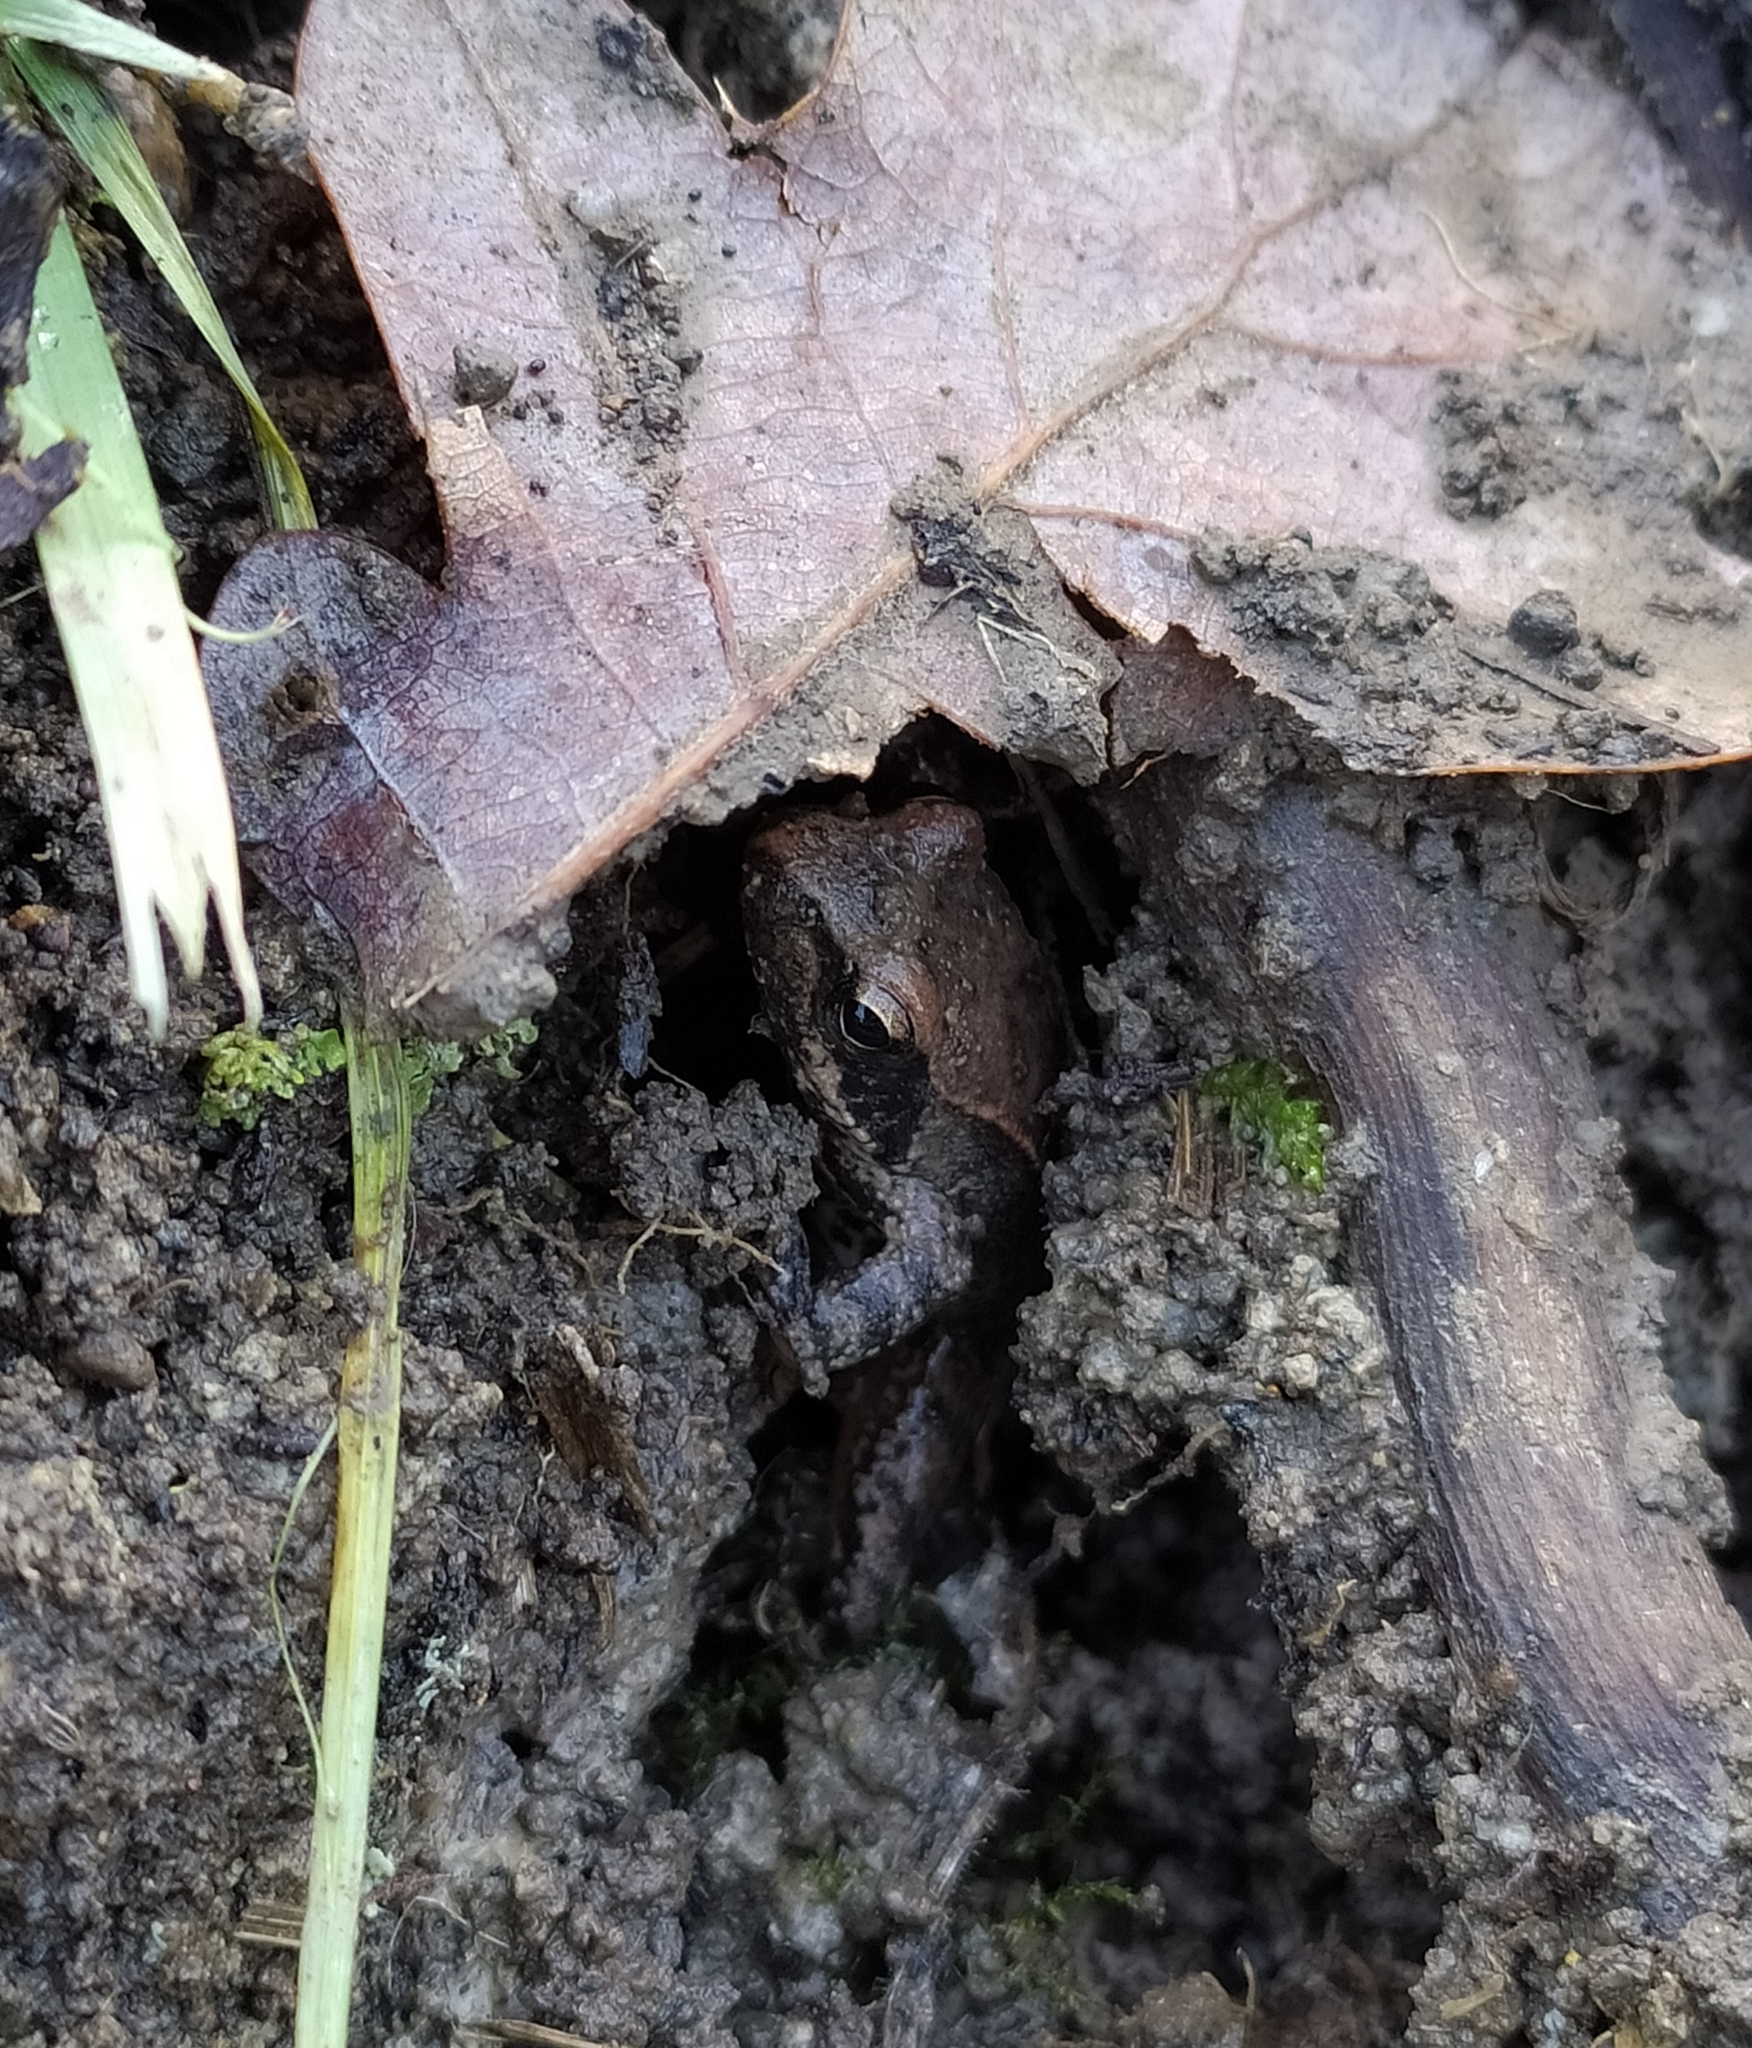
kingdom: Animalia
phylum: Chordata
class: Amphibia
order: Anura
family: Ranidae
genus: Rana
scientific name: Rana italica
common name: Italian stream frog
